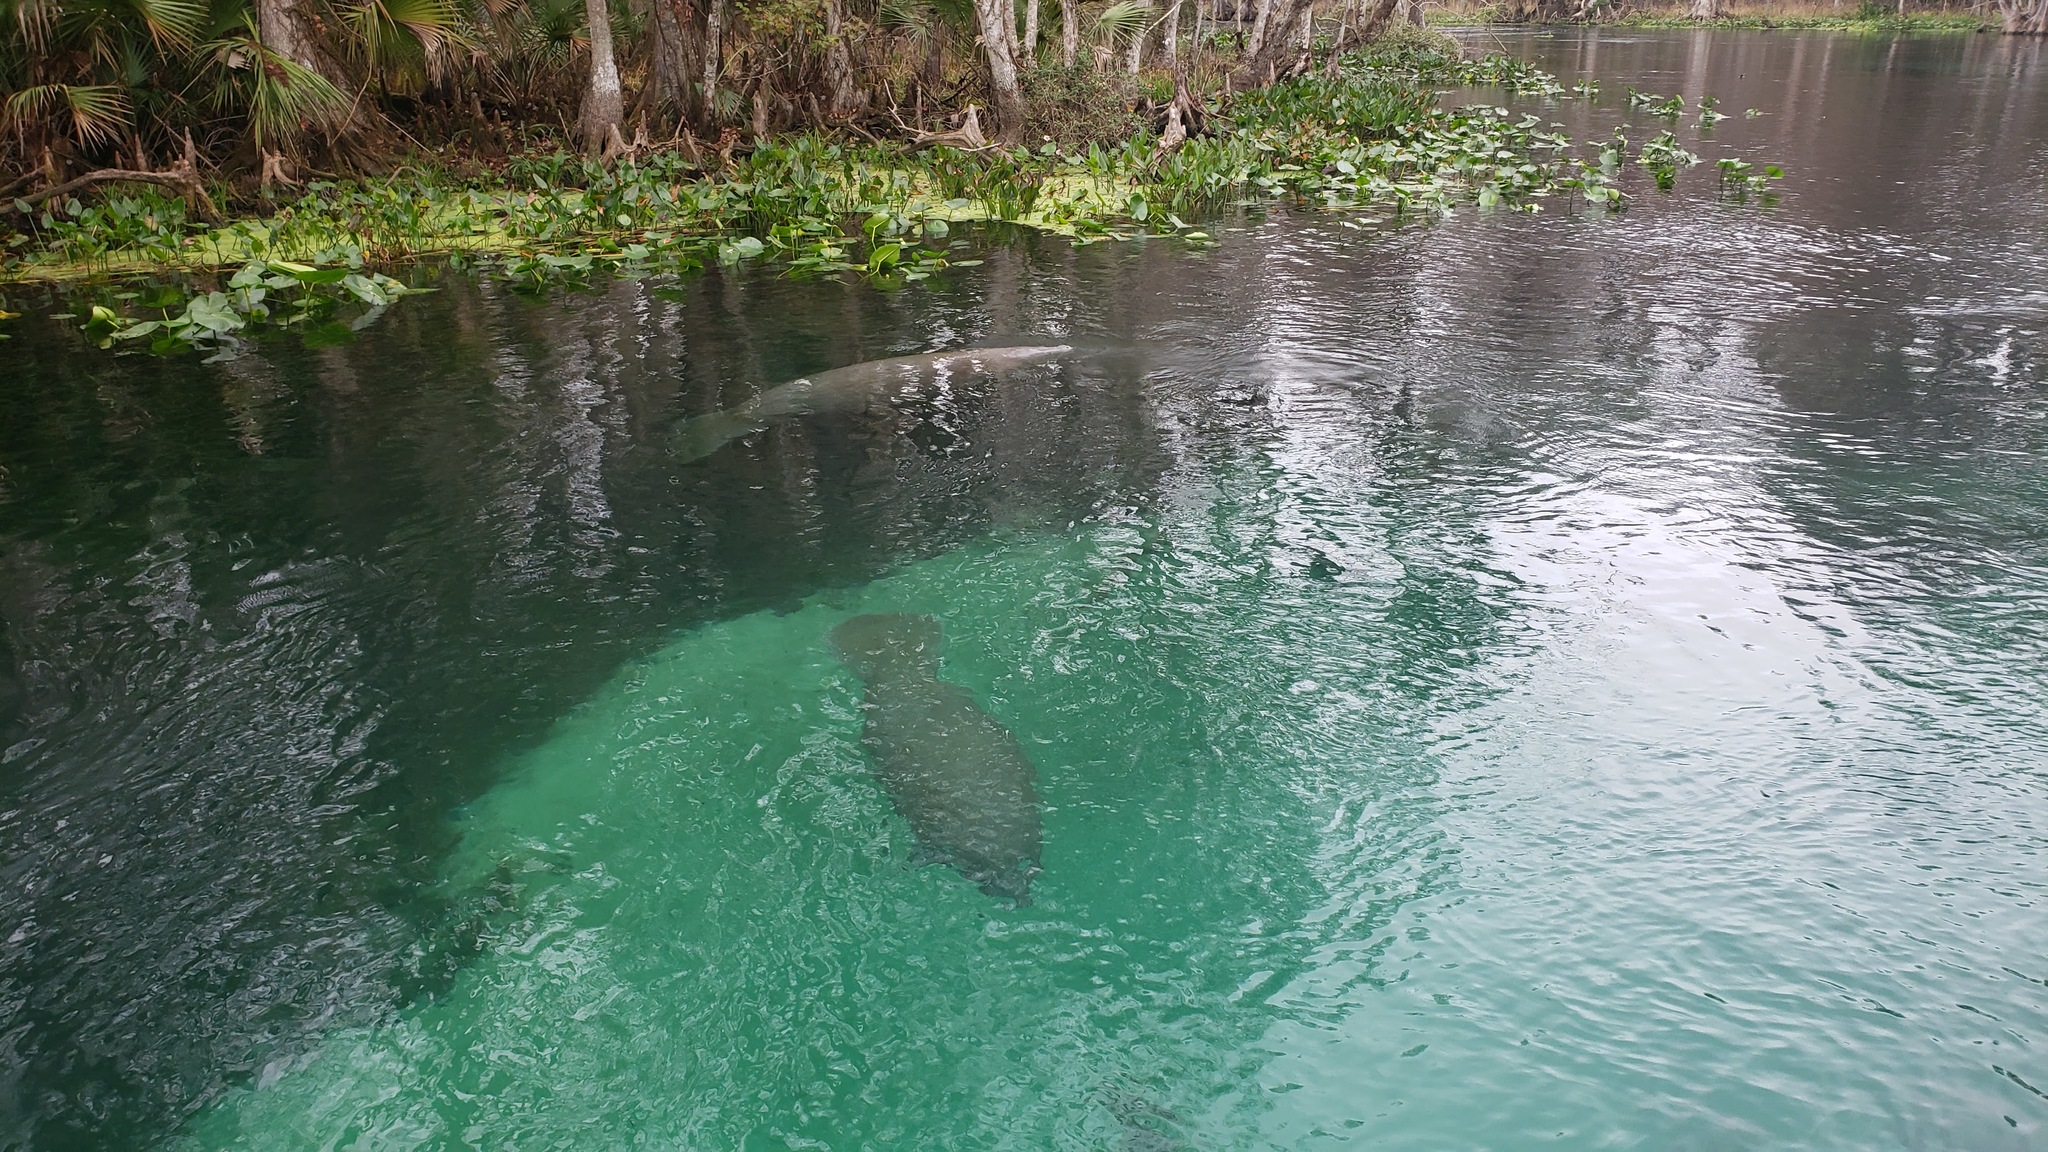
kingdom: Animalia
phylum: Chordata
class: Mammalia
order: Sirenia
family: Trichechidae
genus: Trichechus
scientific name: Trichechus manatus
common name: West indian manatee
